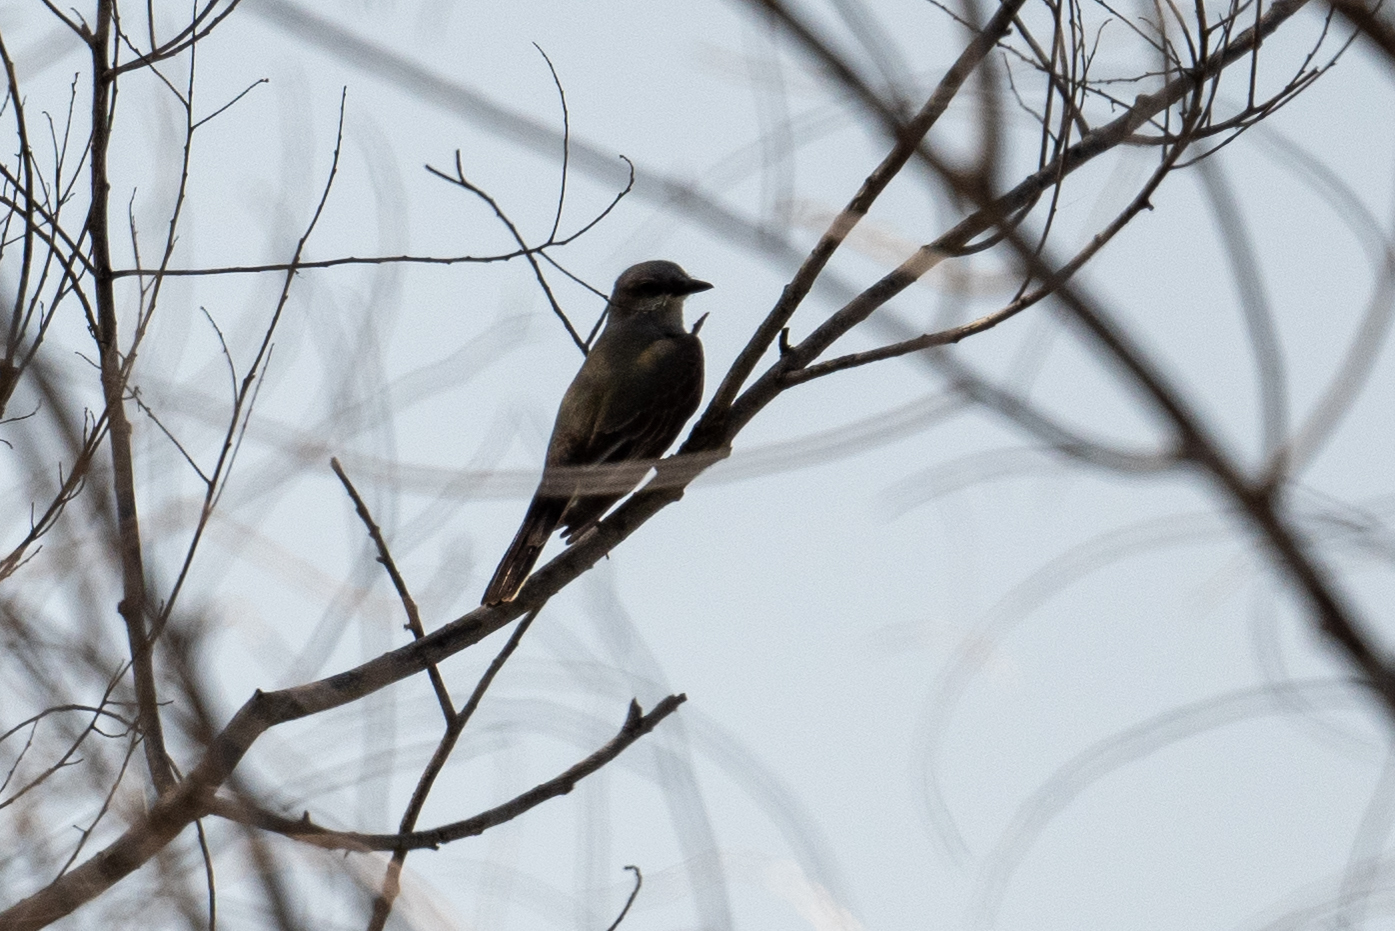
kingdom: Animalia
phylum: Chordata
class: Aves
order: Passeriformes
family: Tyrannidae
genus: Tyrannus
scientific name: Tyrannus verticalis
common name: Western kingbird
